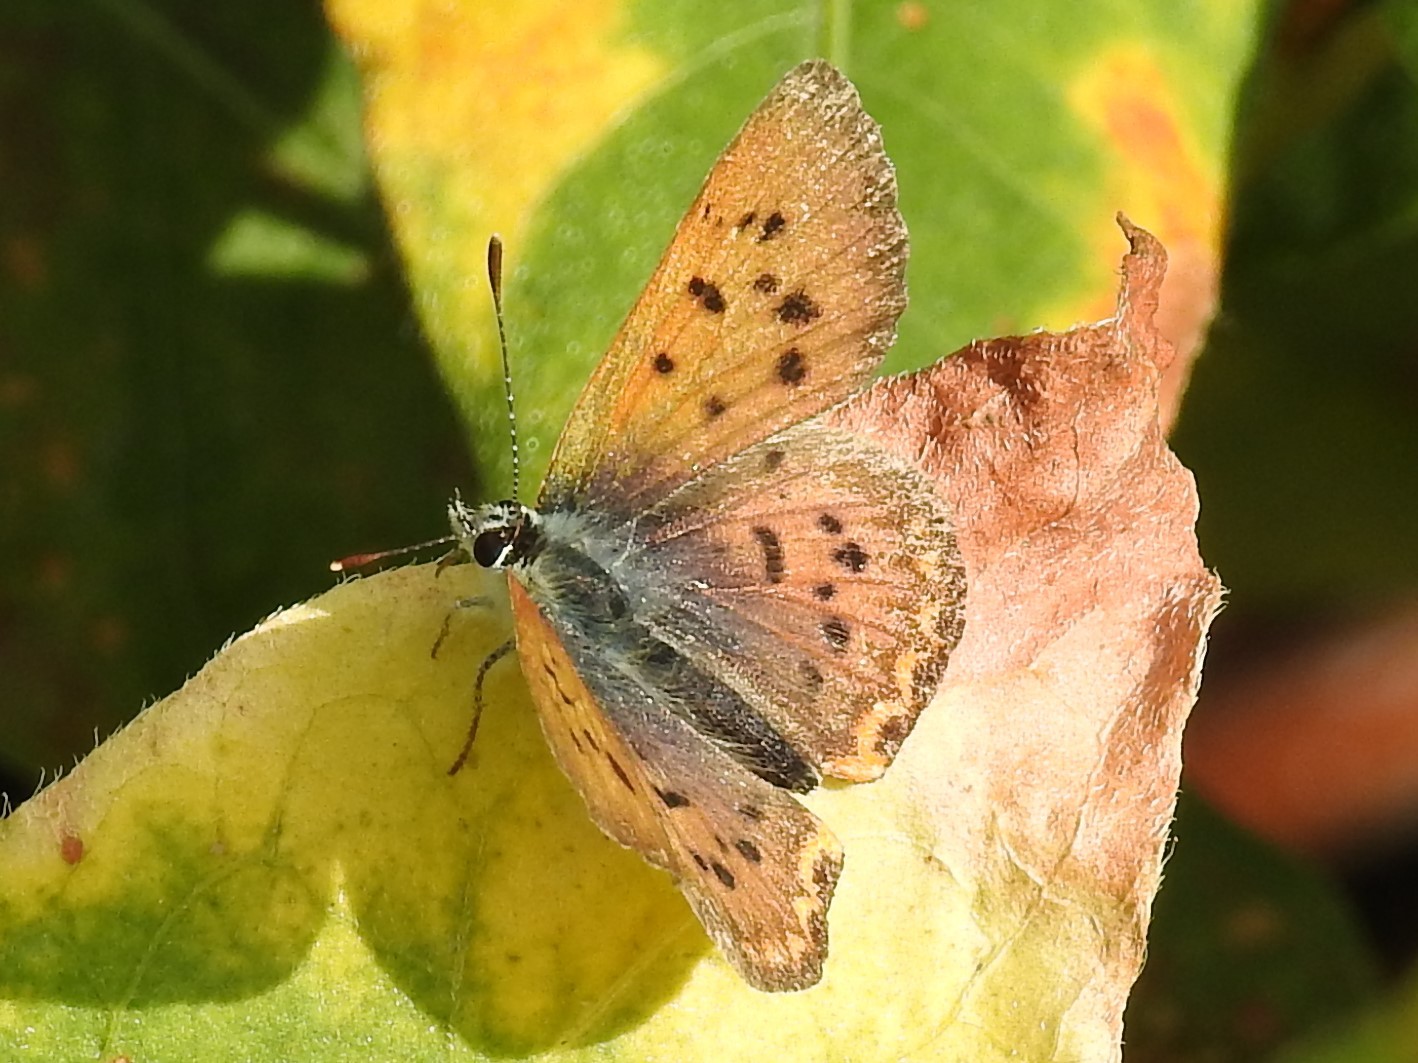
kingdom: Animalia
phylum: Arthropoda
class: Insecta
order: Lepidoptera
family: Lycaenidae
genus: Tharsalea
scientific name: Tharsalea helloides
